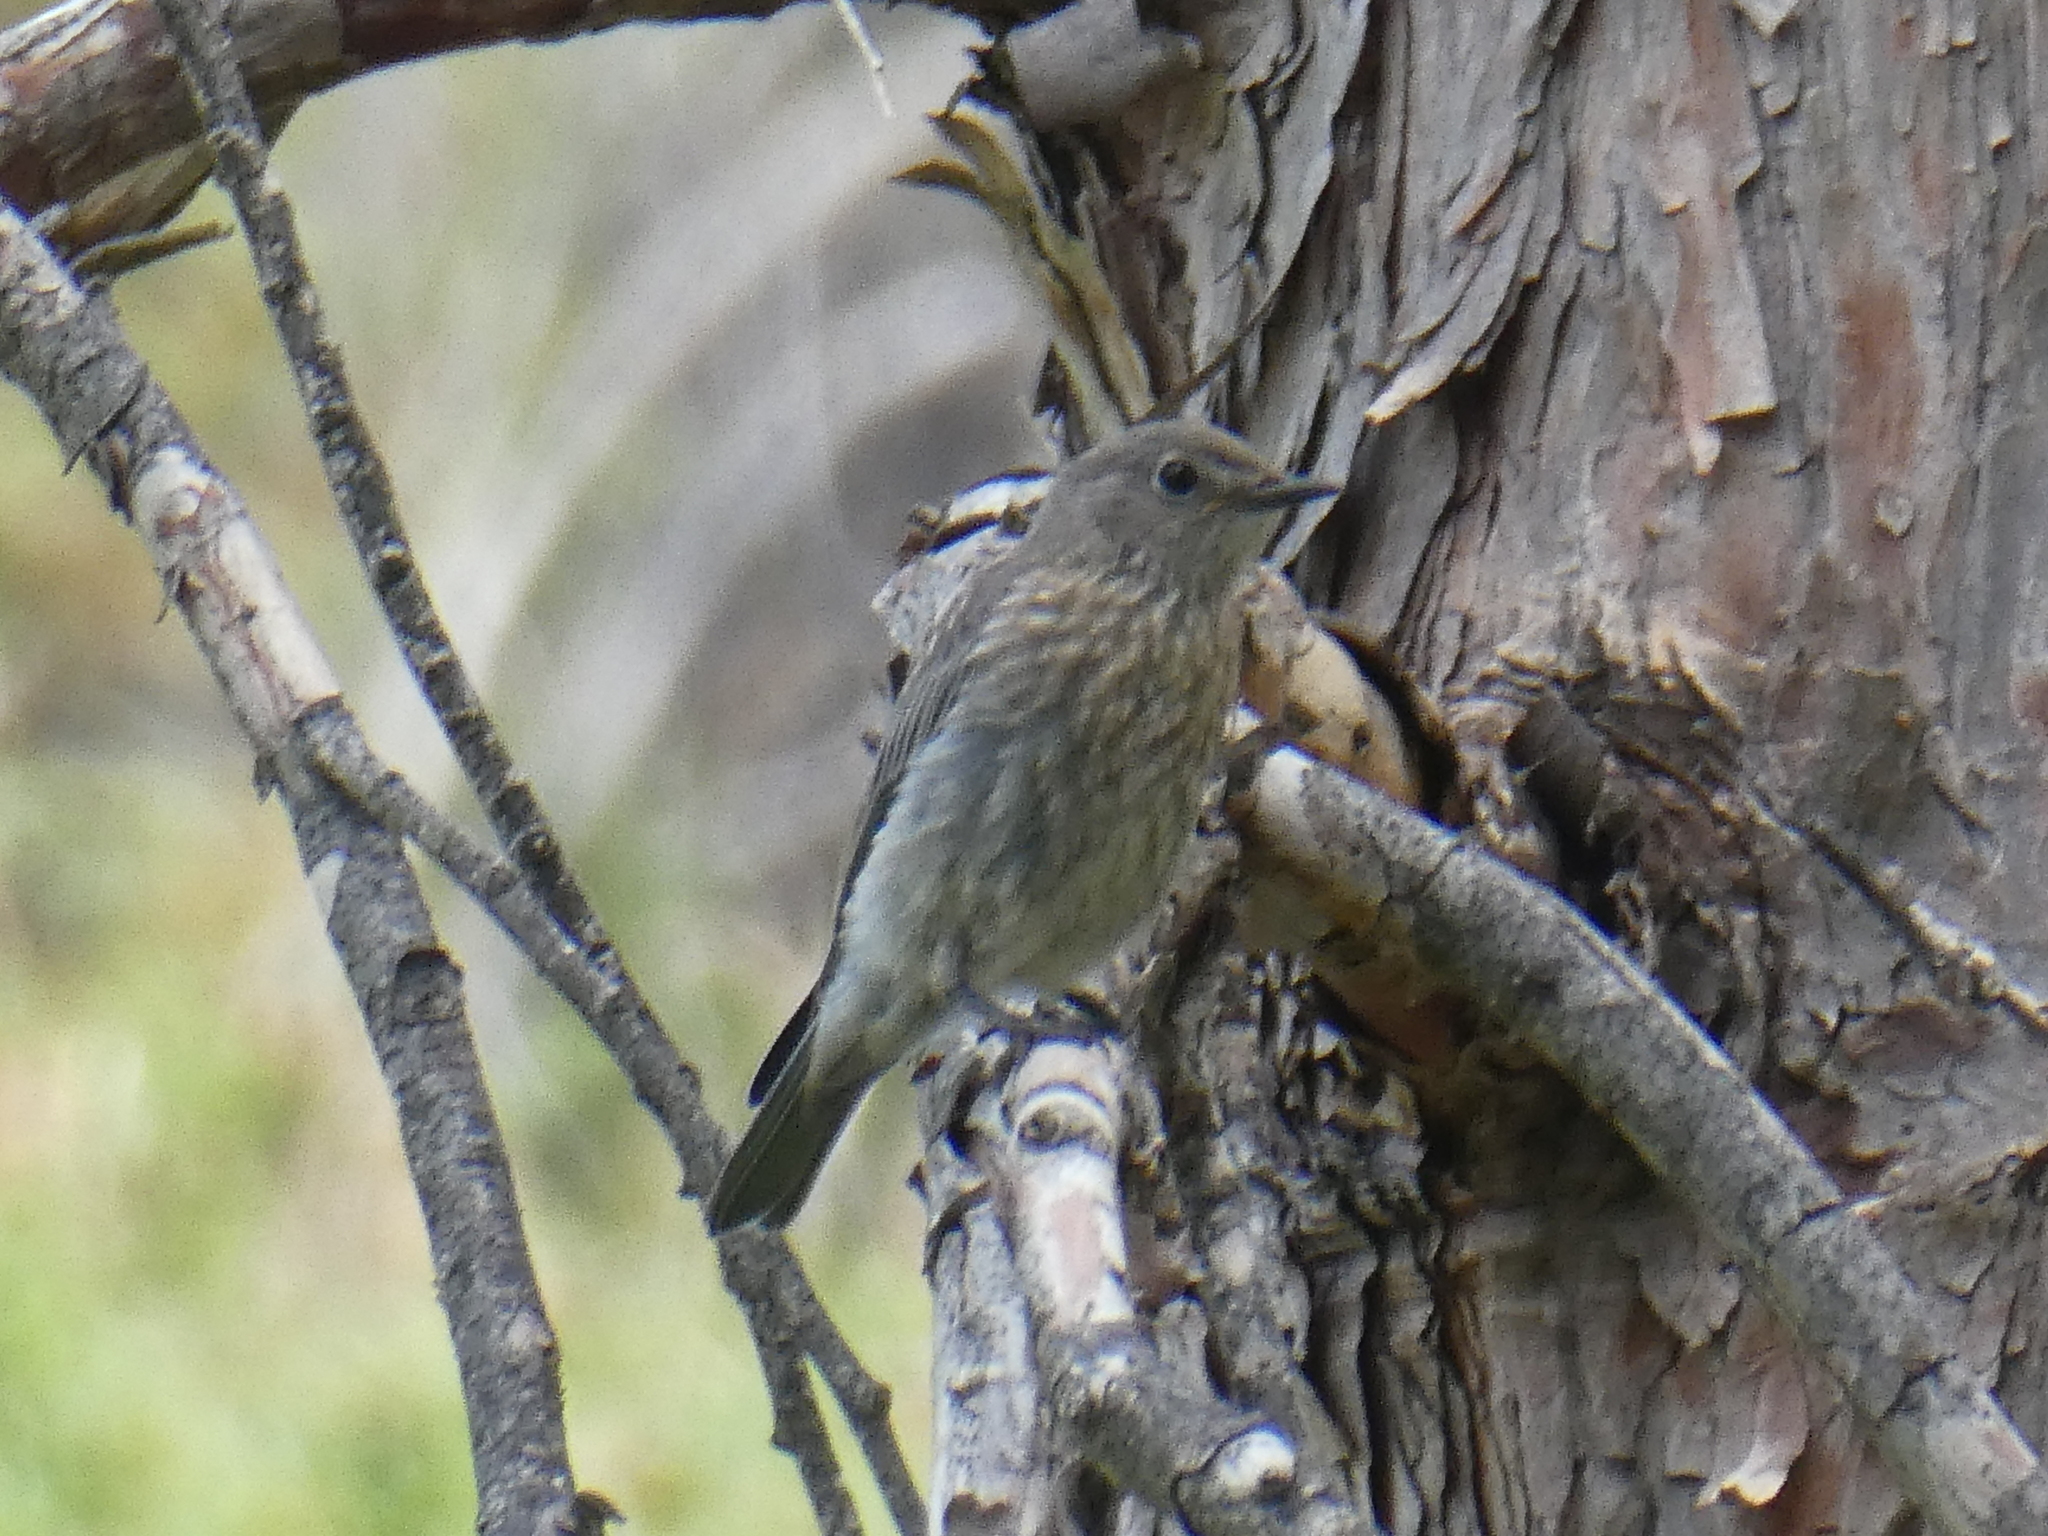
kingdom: Animalia
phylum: Chordata
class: Aves
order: Passeriformes
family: Turdidae
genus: Sialia
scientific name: Sialia currucoides
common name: Mountain bluebird
